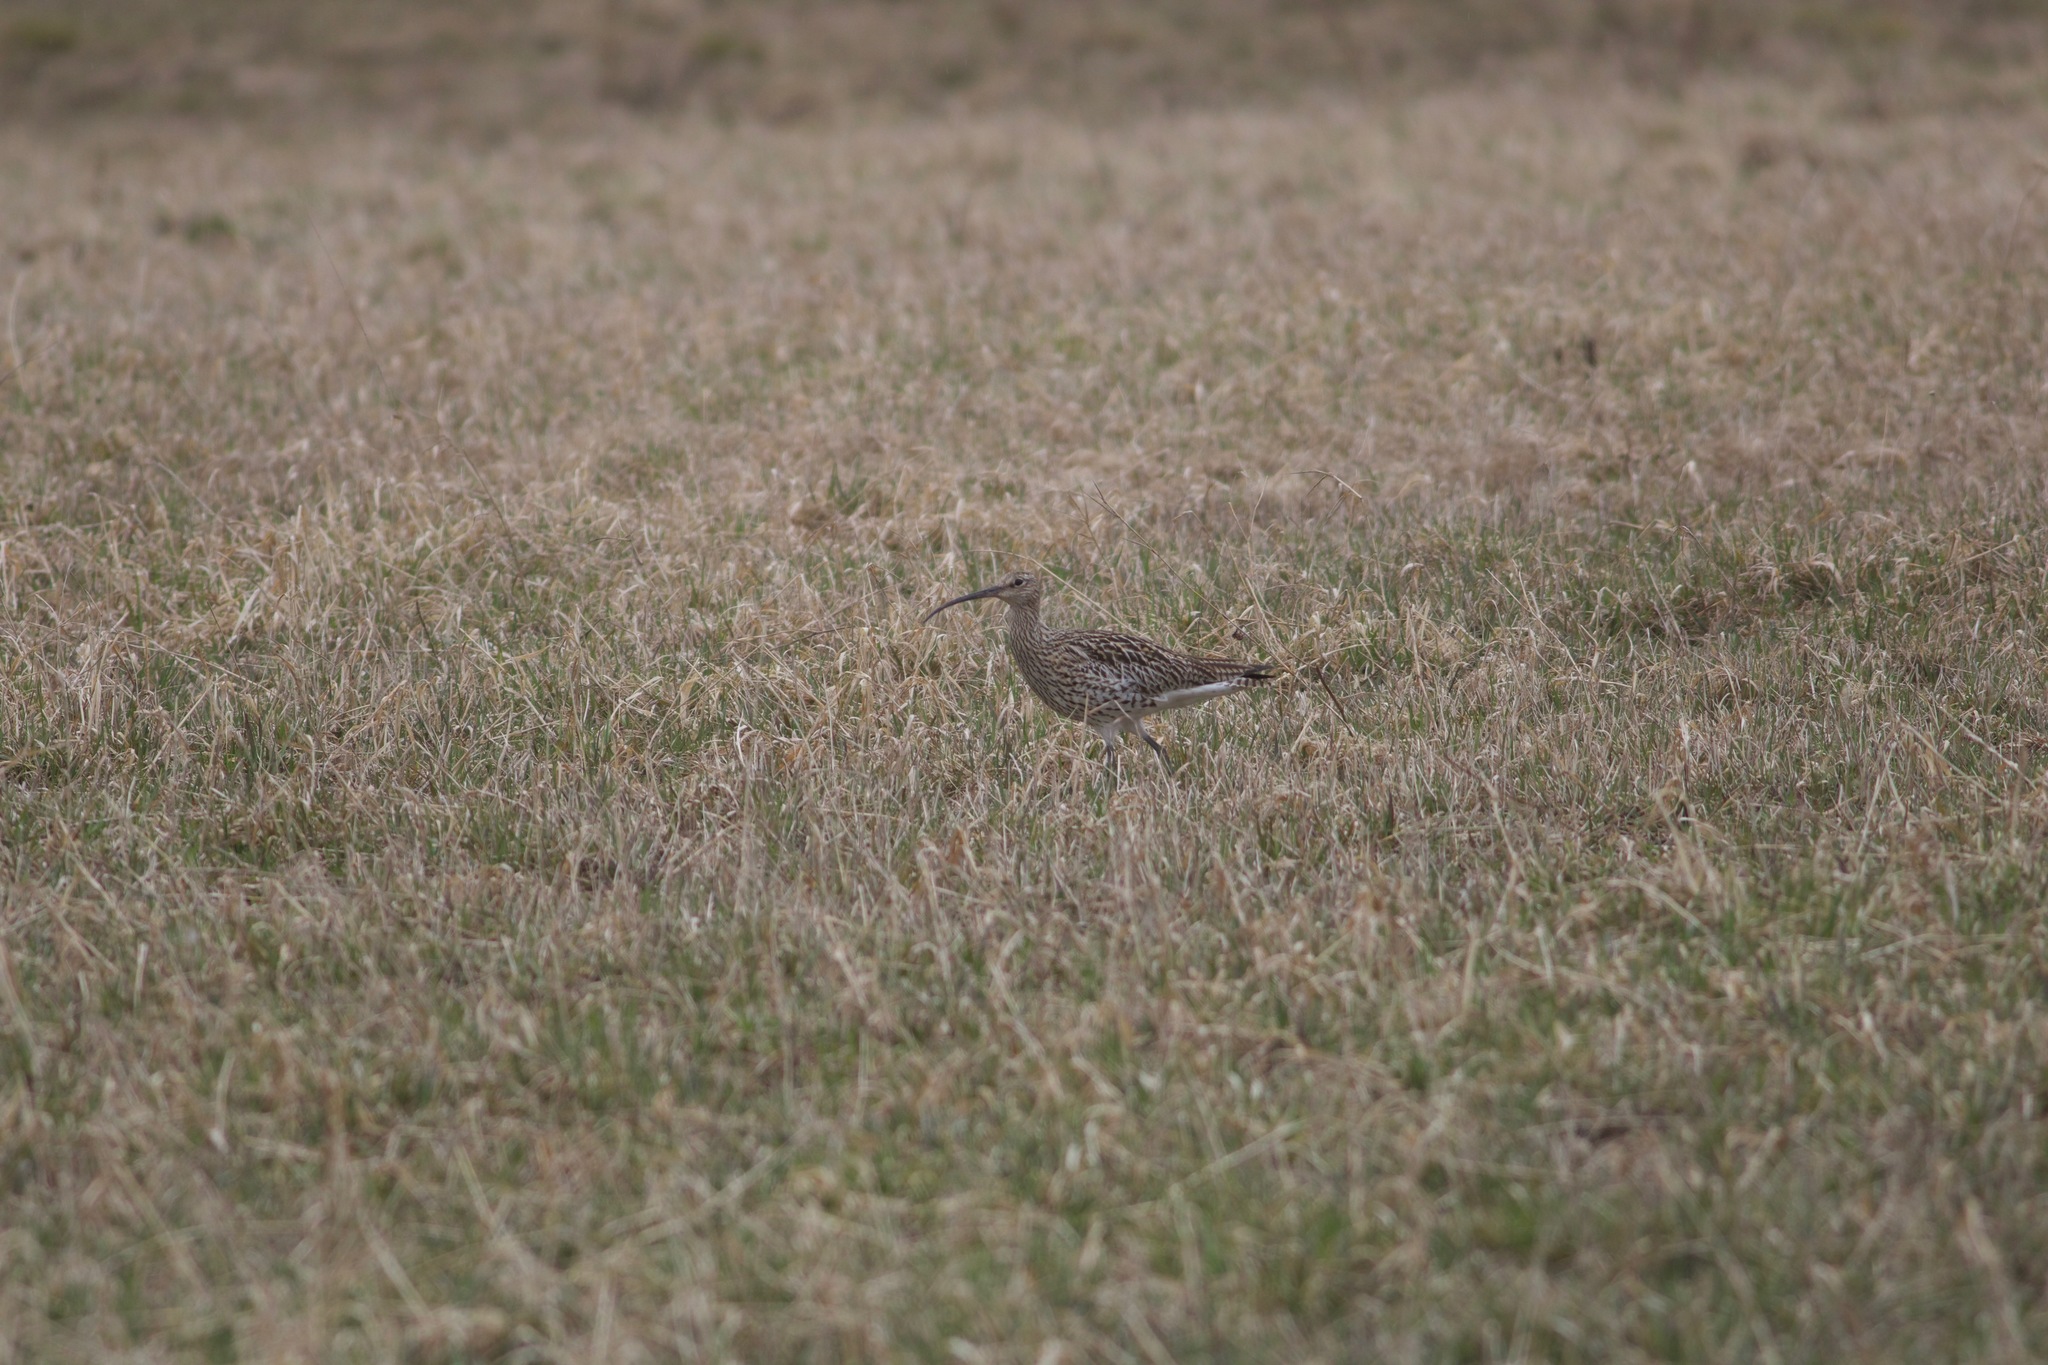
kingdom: Animalia
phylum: Chordata
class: Aves
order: Charadriiformes
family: Scolopacidae
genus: Numenius
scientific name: Numenius arquata
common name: Eurasian curlew
